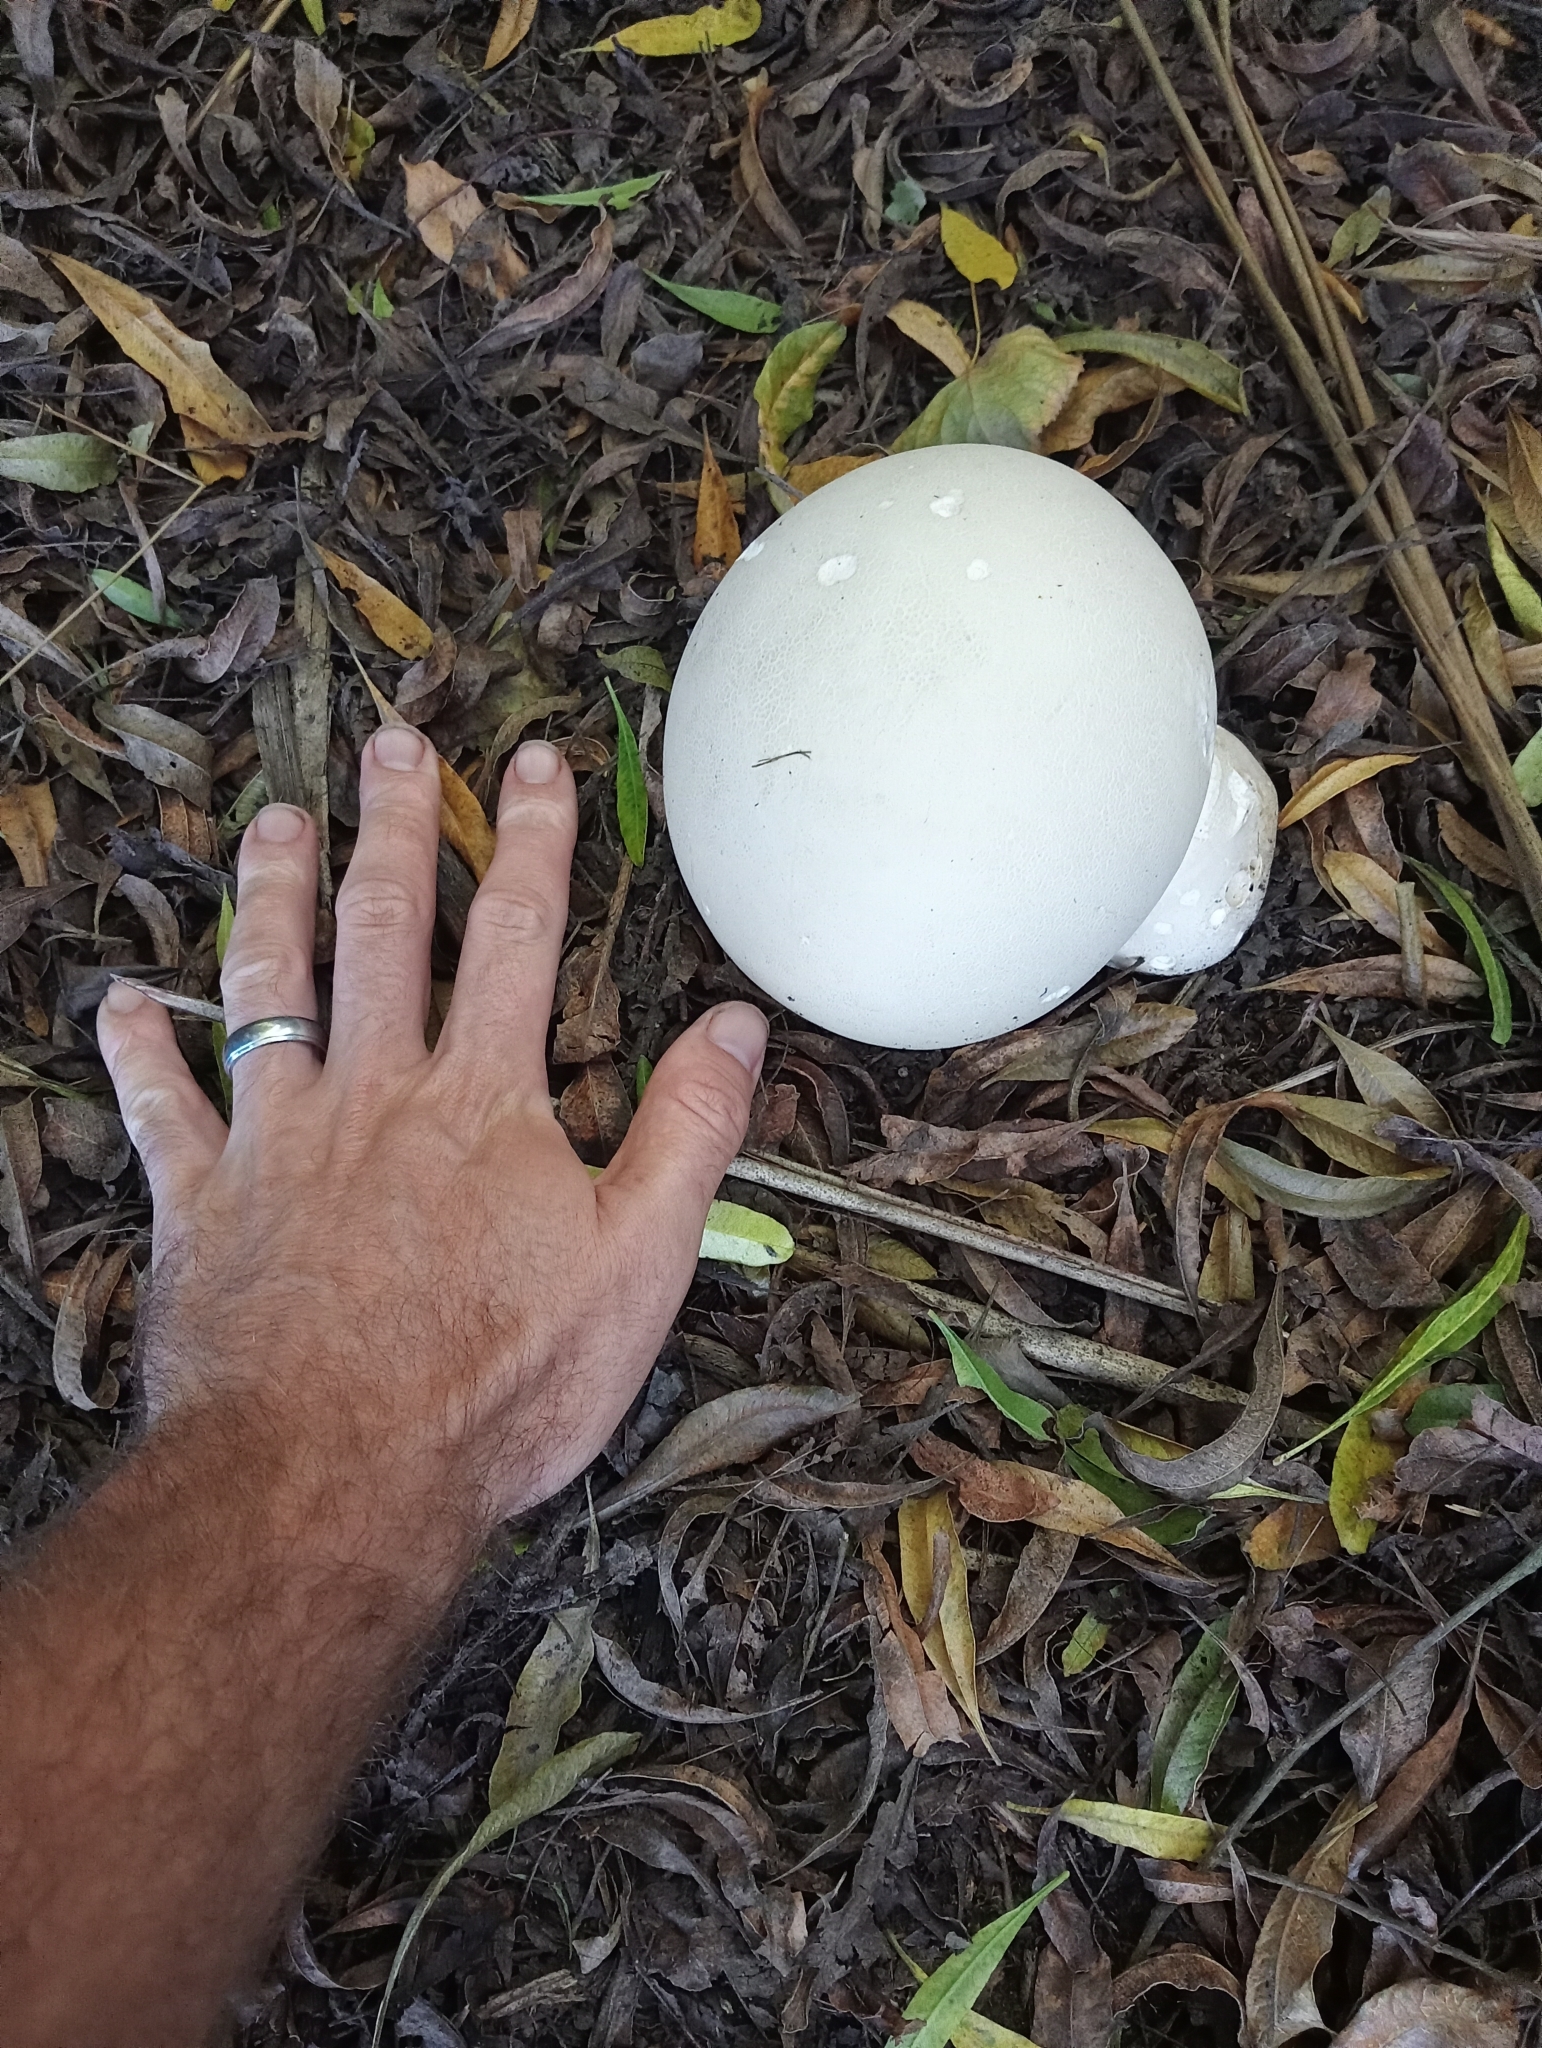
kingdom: Fungi
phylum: Basidiomycota
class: Agaricomycetes
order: Agaricales
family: Lycoperdaceae
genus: Calvatia
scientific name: Calvatia gigantea
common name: Giant puffball
